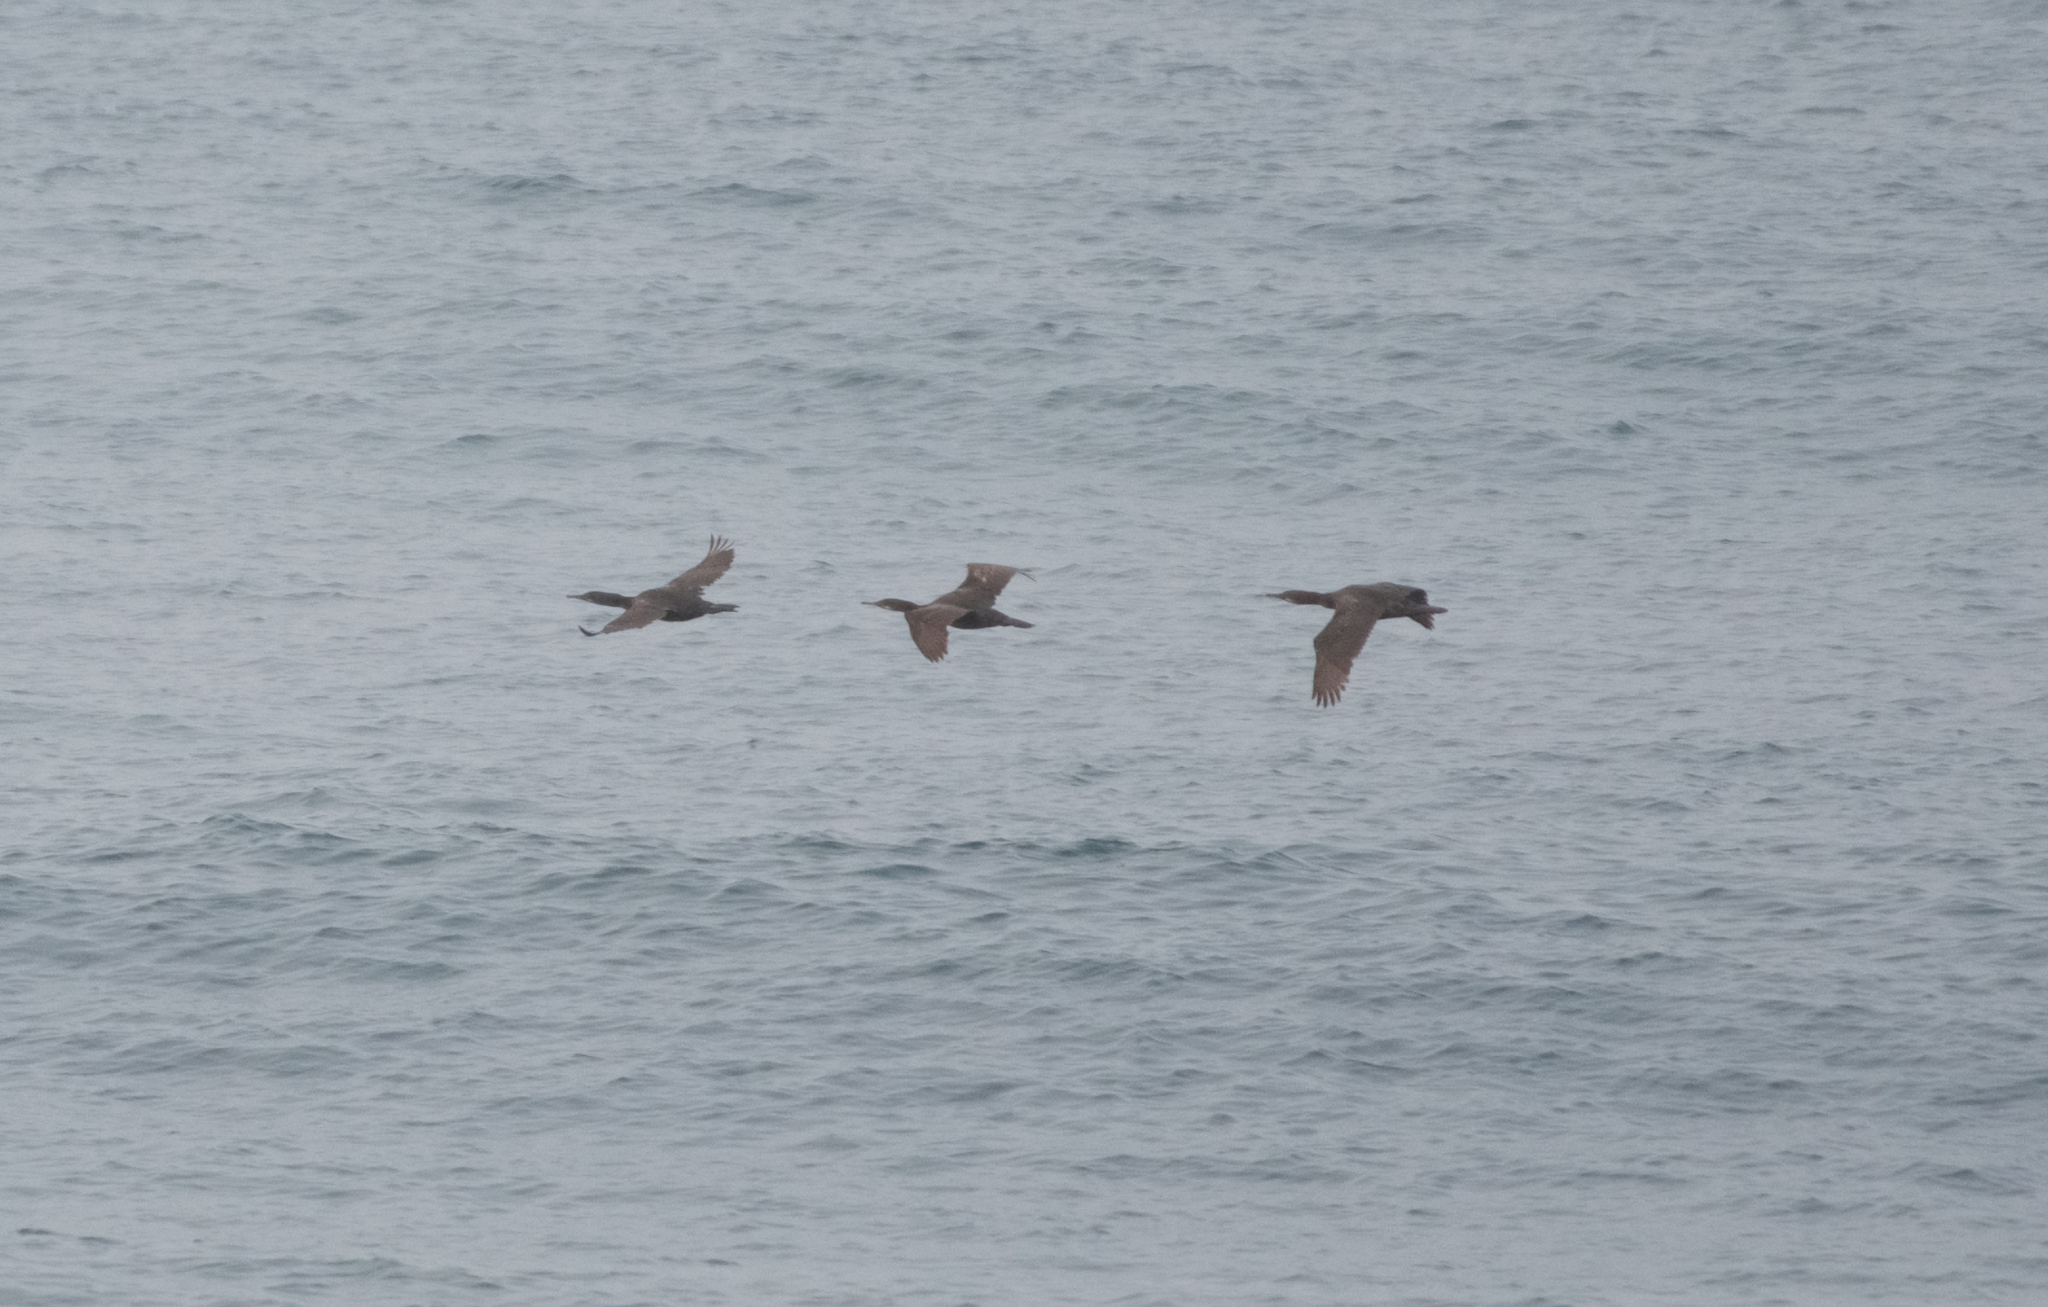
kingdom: Animalia
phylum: Chordata
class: Aves
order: Suliformes
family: Phalacrocoracidae
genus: Urile
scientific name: Urile penicillatus
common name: Brandt's cormorant
